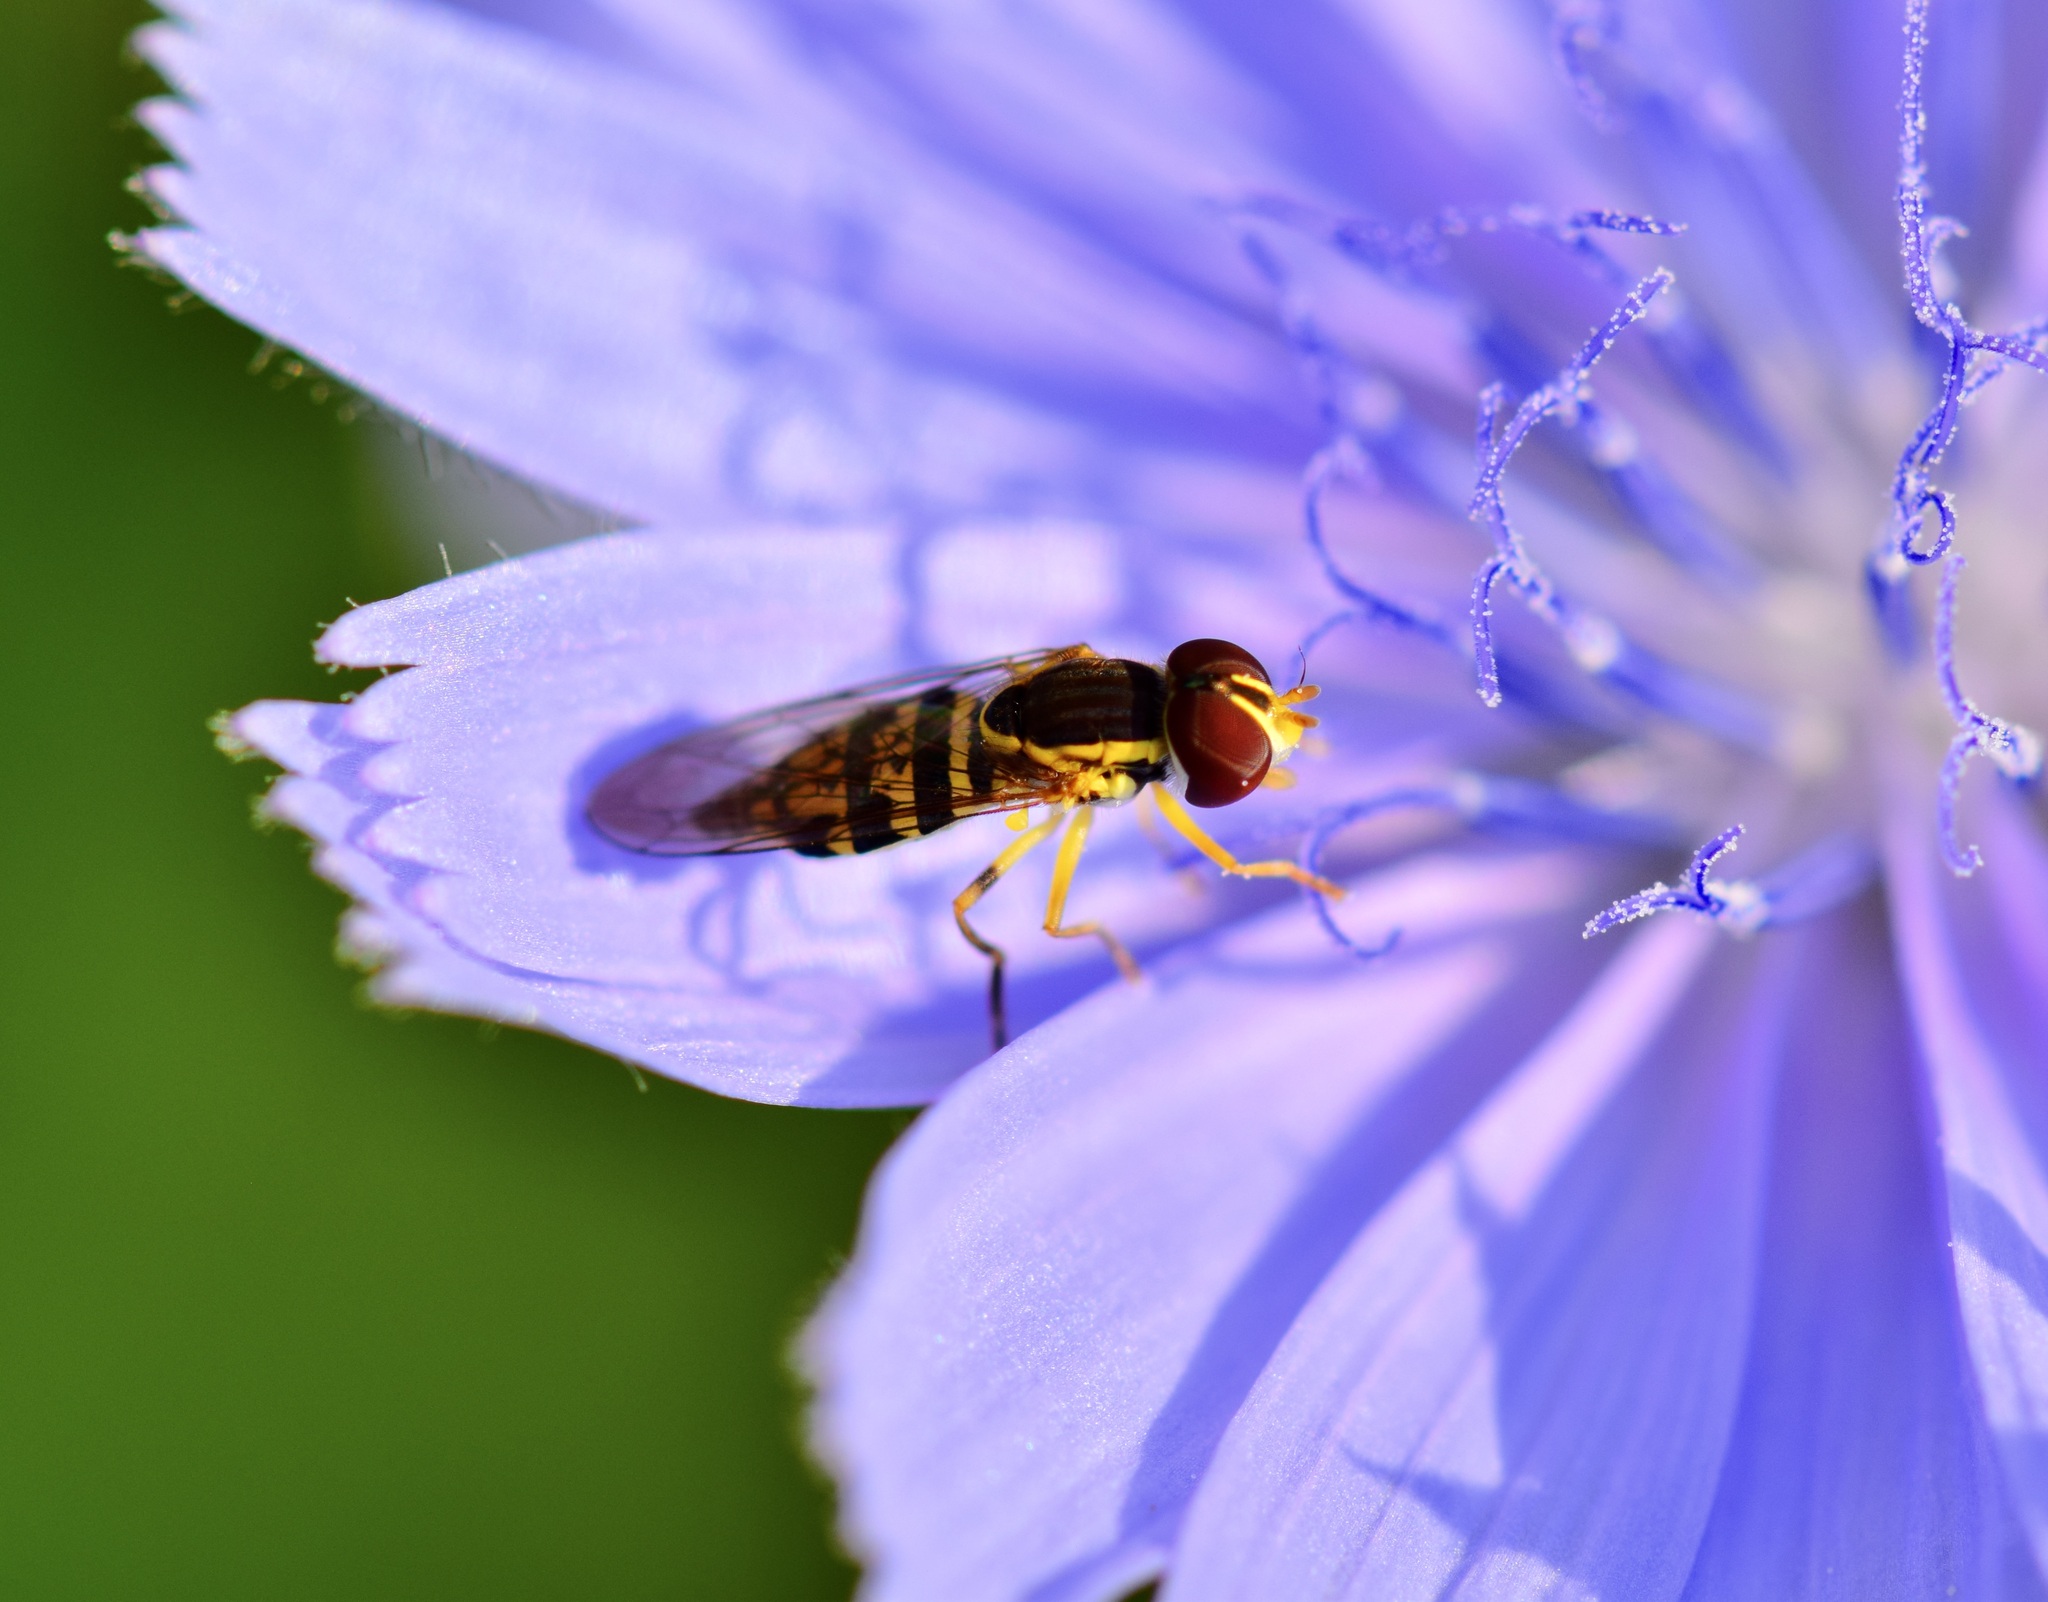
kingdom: Animalia
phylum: Arthropoda
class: Insecta
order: Diptera
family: Syrphidae
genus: Toxomerus
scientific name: Toxomerus geminatus
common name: Eastern calligrapher
